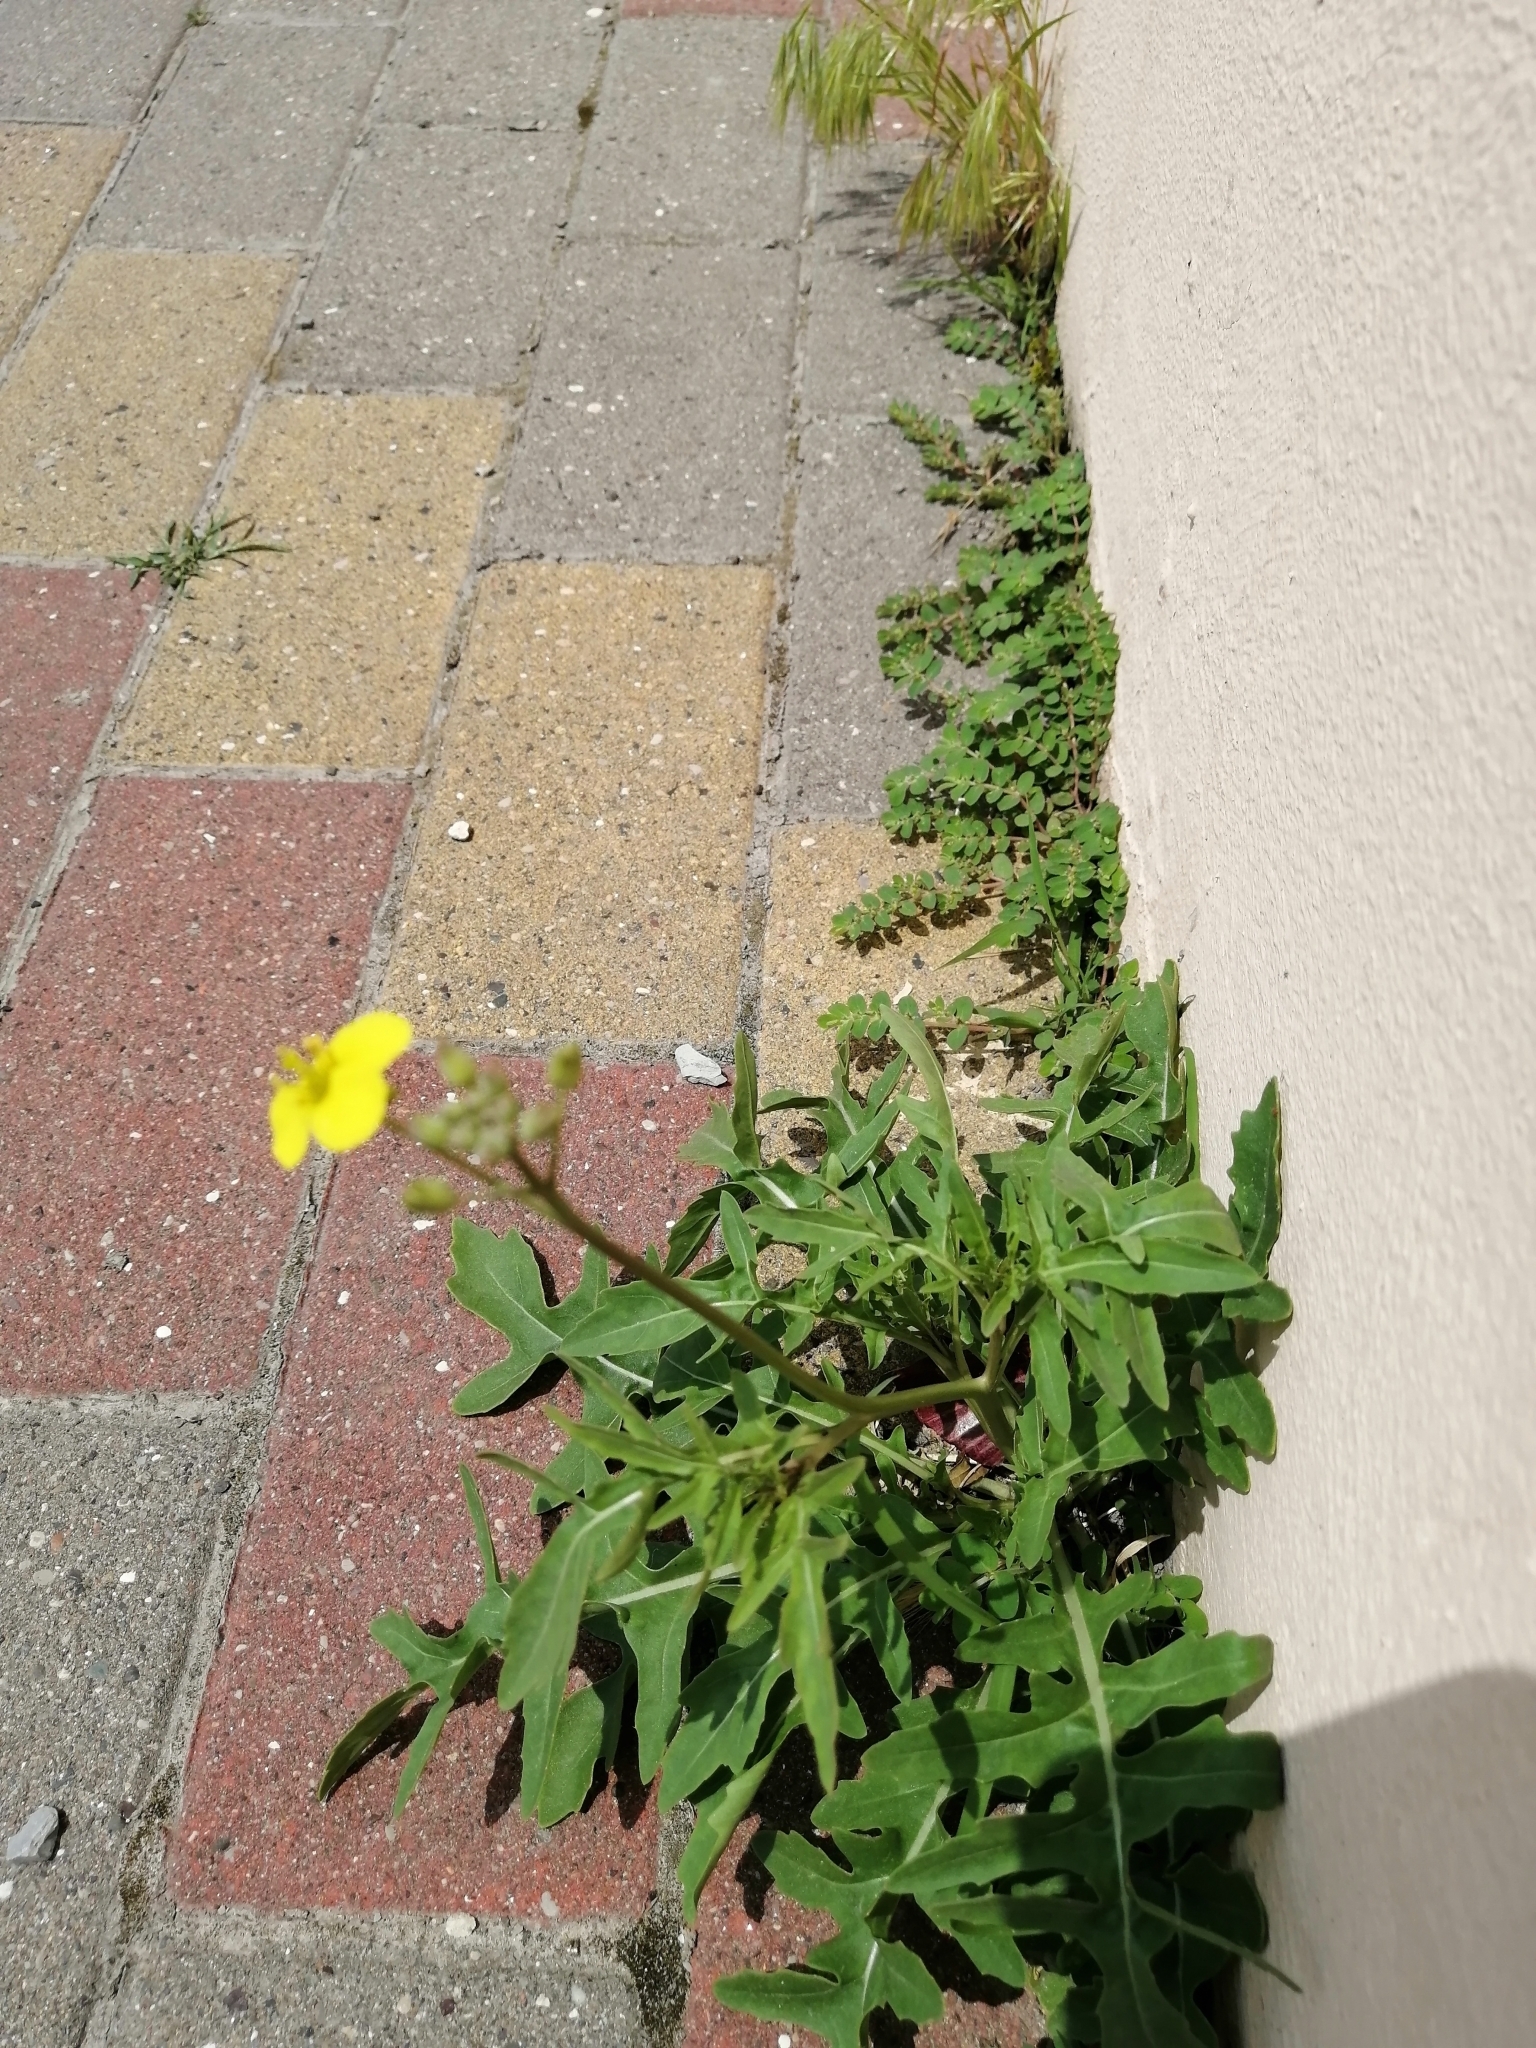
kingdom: Plantae
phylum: Tracheophyta
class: Magnoliopsida
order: Brassicales
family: Brassicaceae
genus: Diplotaxis
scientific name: Diplotaxis tenuifolia
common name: Perennial wall-rocket
